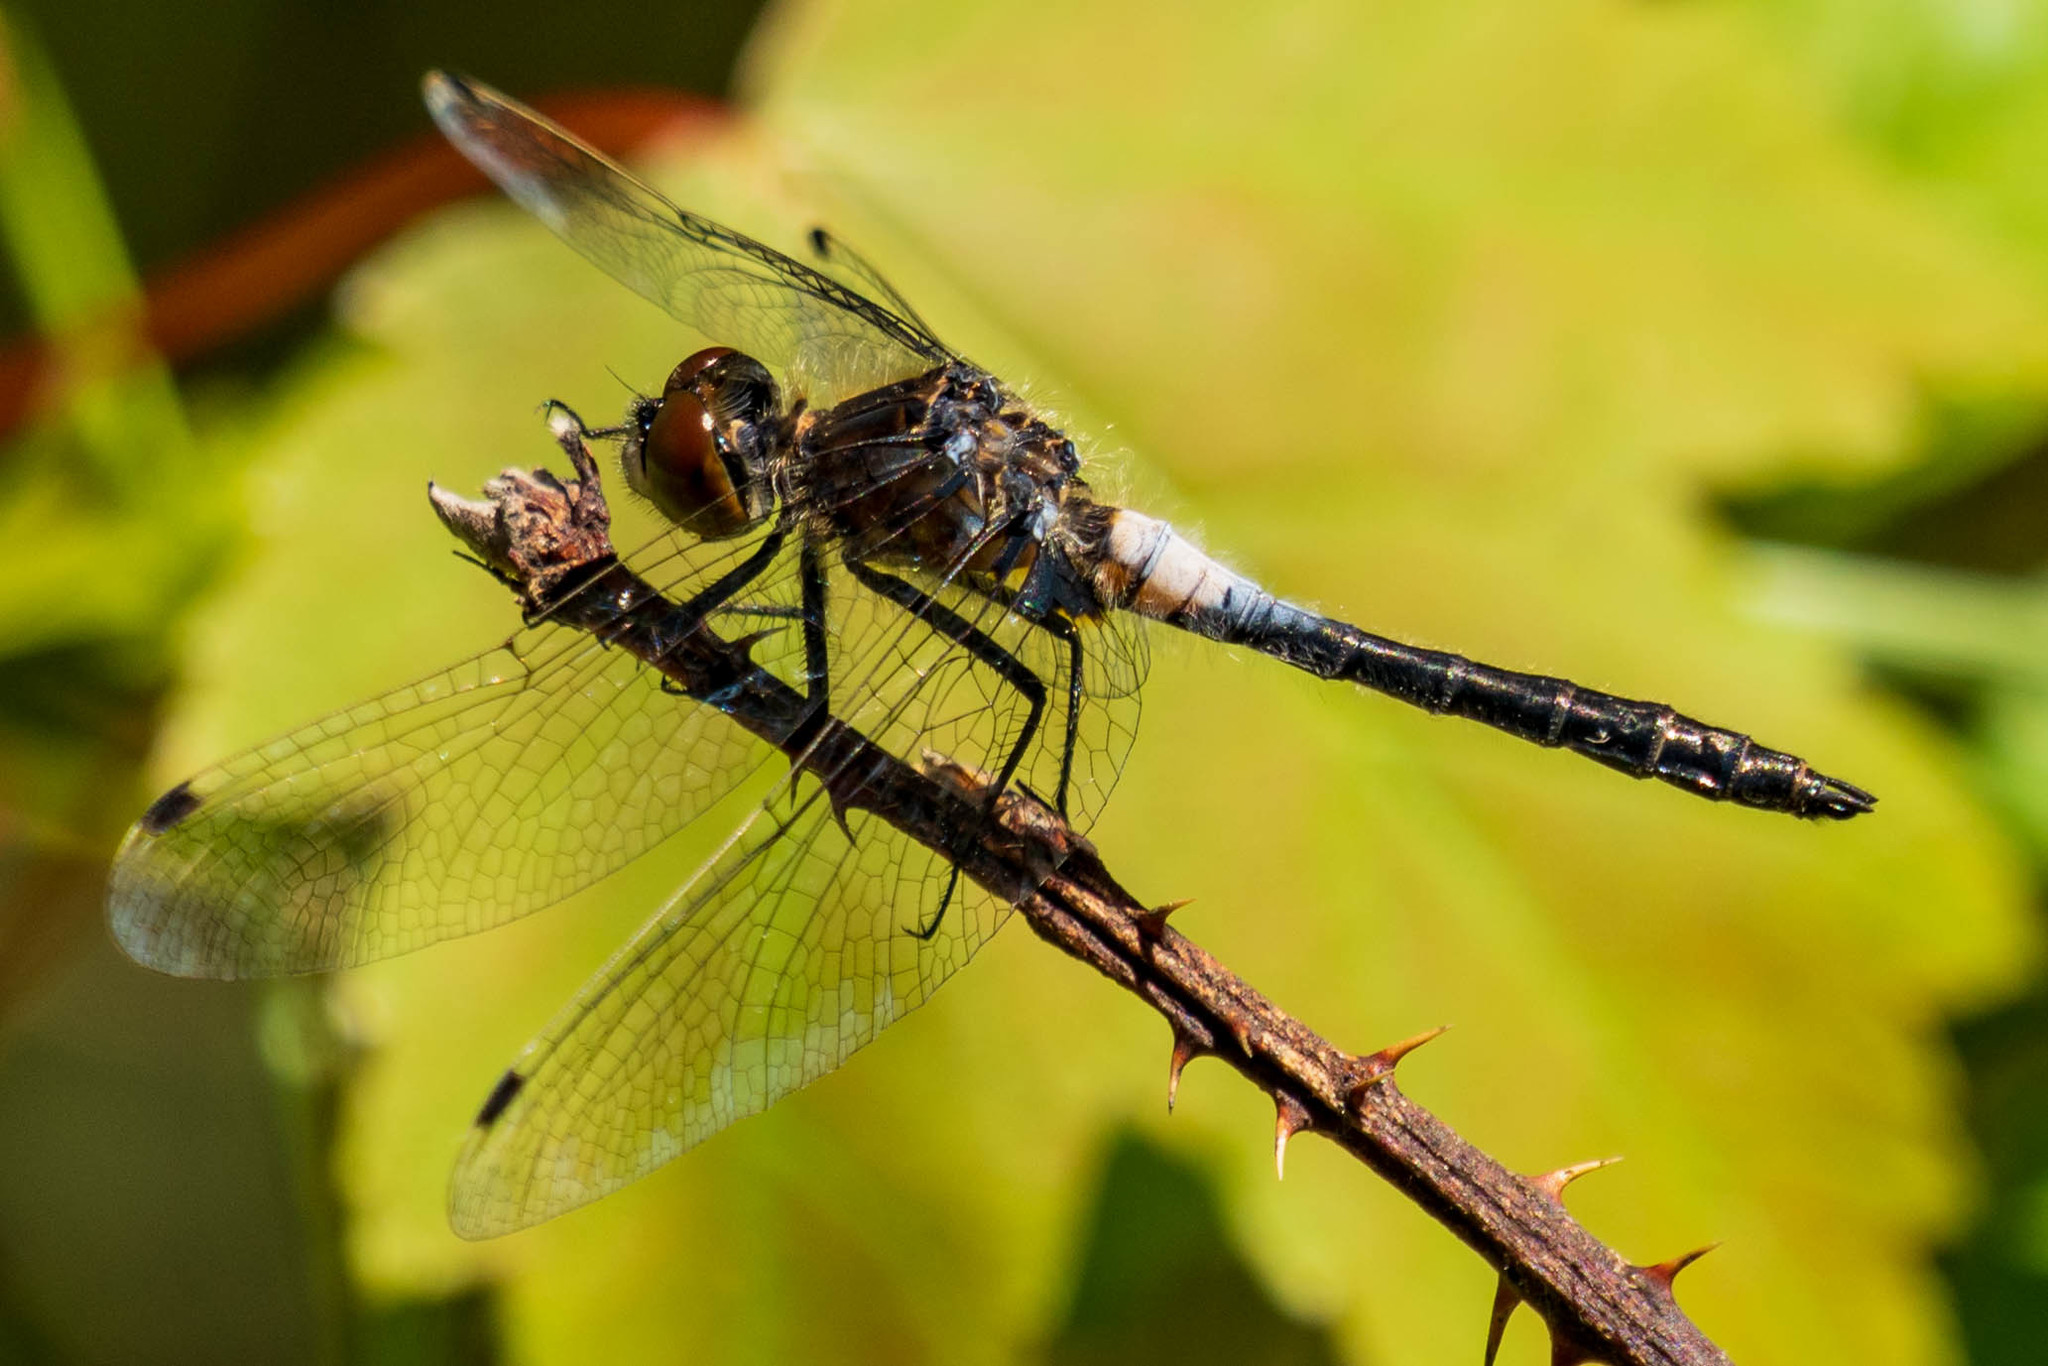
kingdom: Animalia
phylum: Arthropoda
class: Insecta
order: Odonata
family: Libellulidae
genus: Leucorrhinia
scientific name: Leucorrhinia frigida
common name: Frosted whiteface
